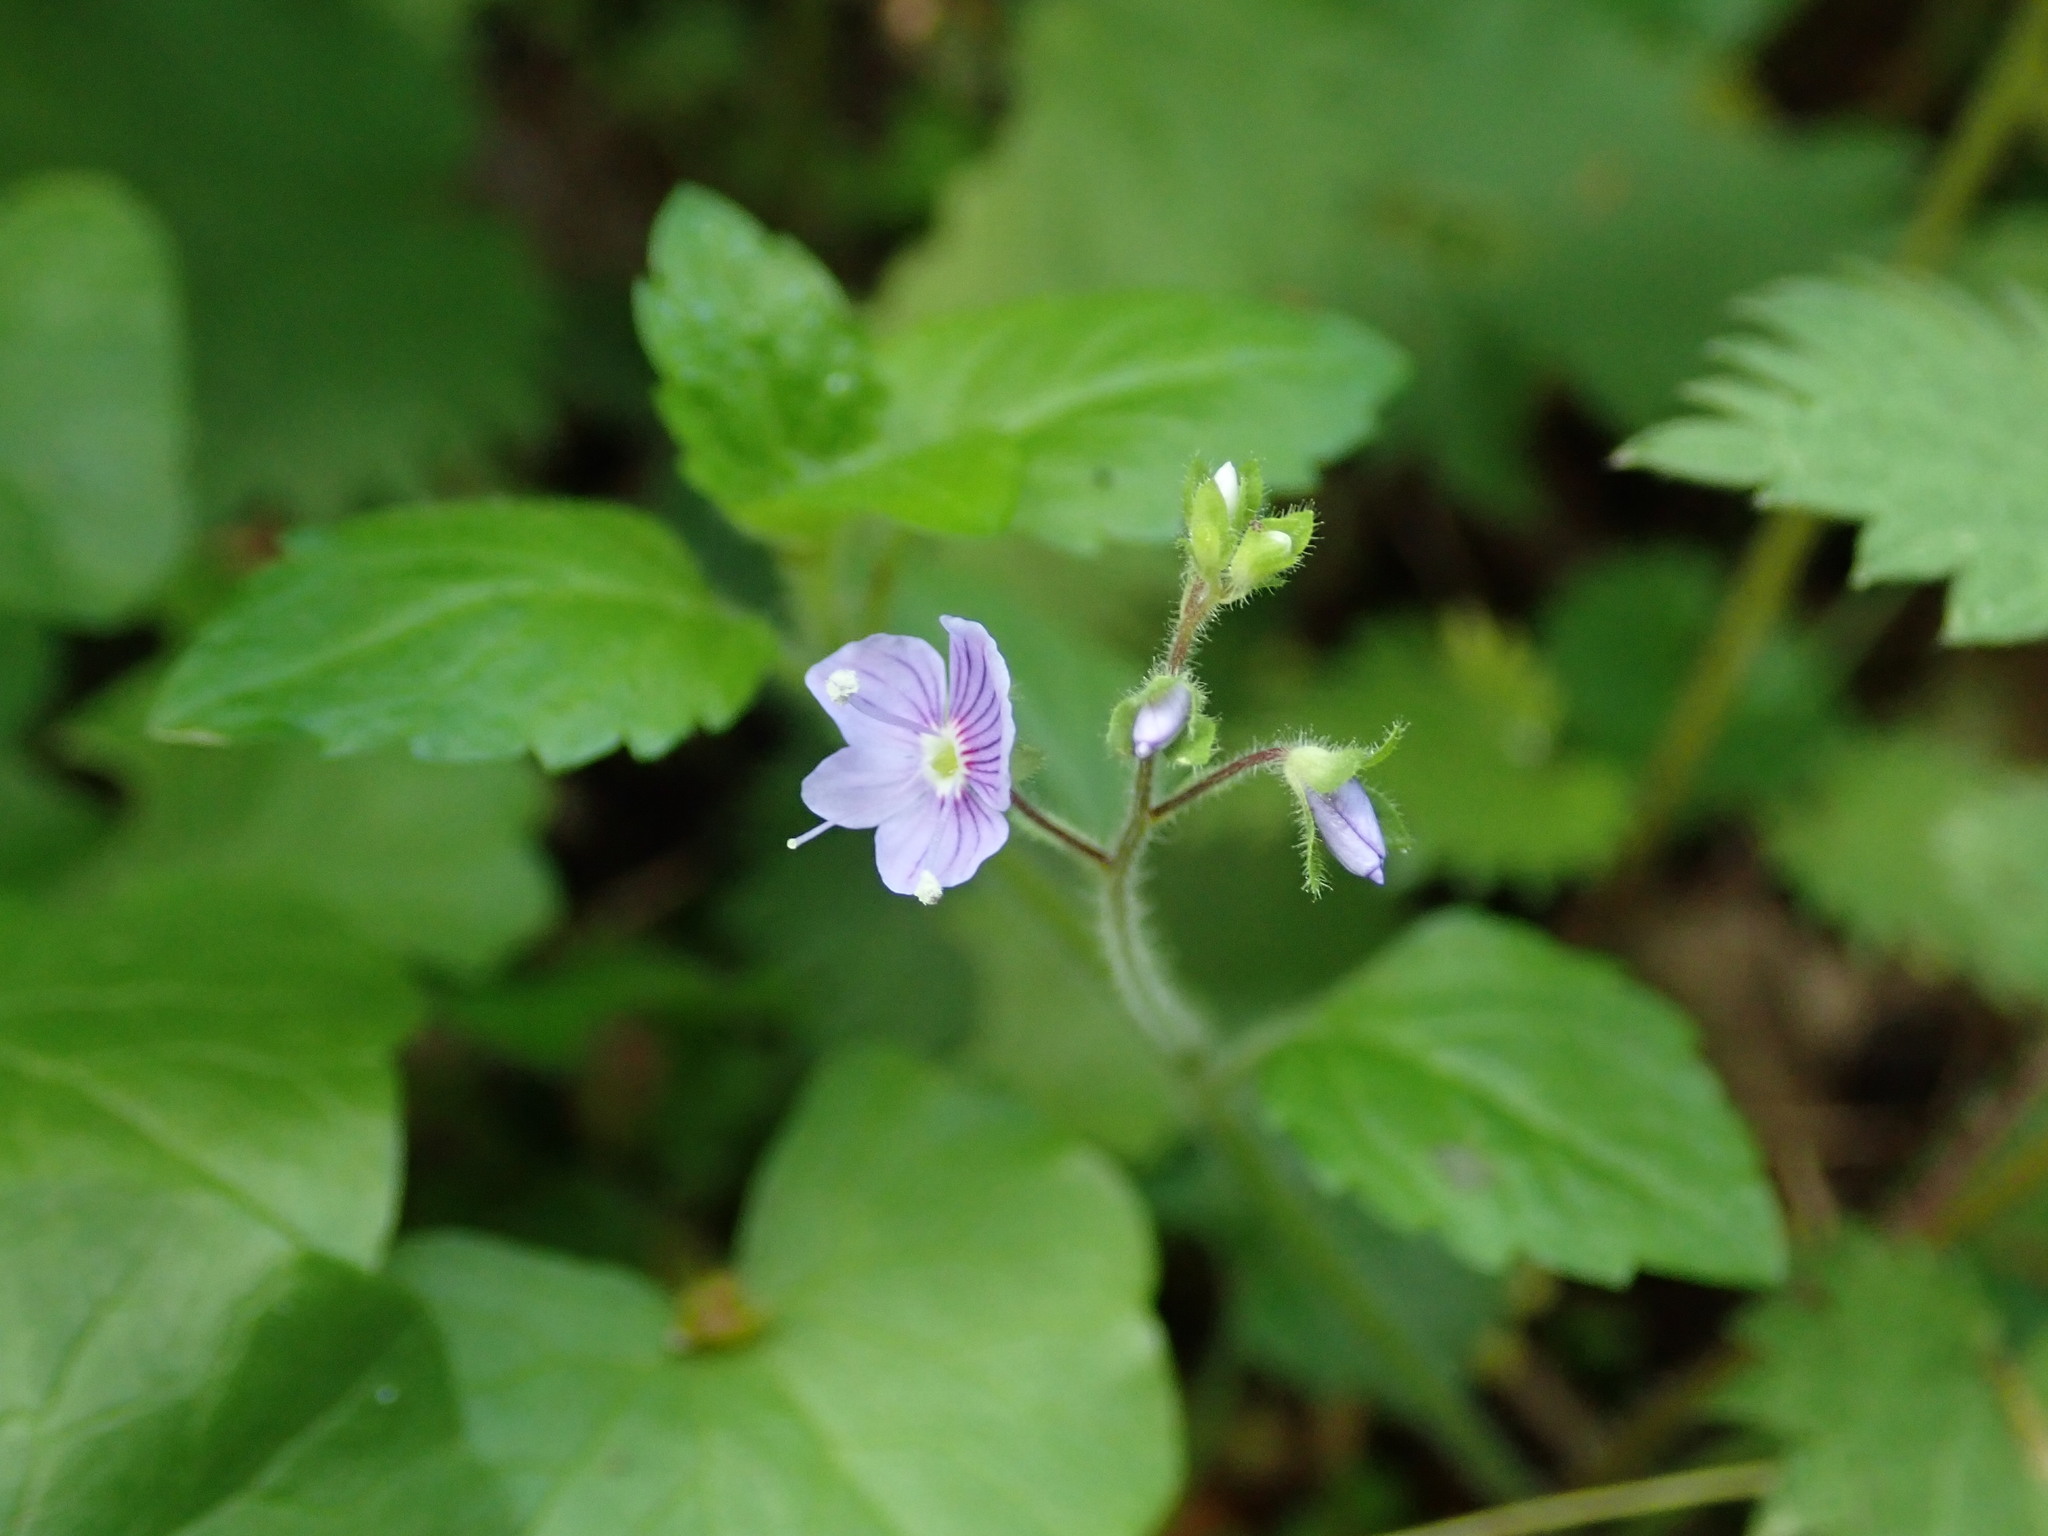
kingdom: Plantae
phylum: Tracheophyta
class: Magnoliopsida
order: Lamiales
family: Plantaginaceae
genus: Veronica
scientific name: Veronica montana
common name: Wood speedwell
